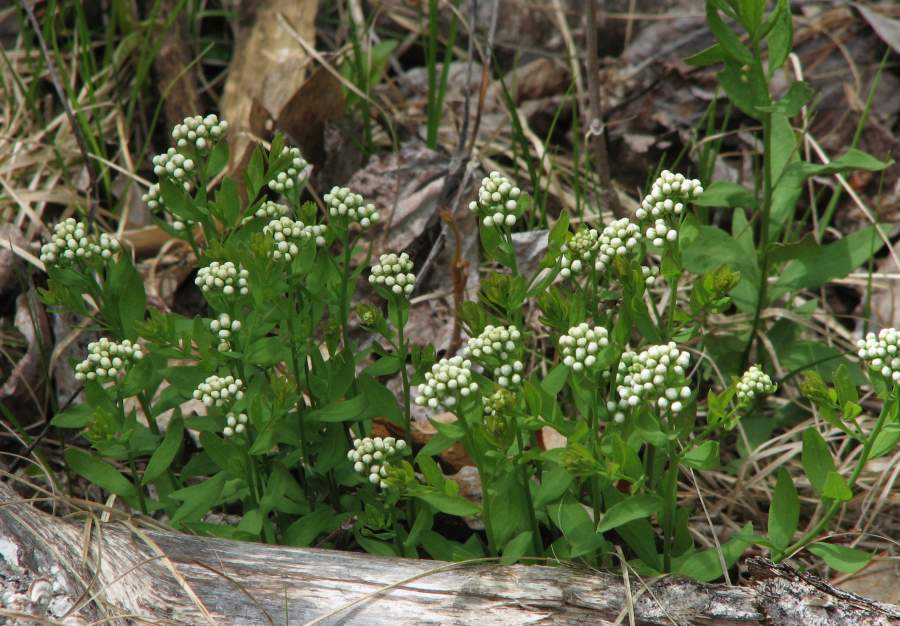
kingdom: Plantae
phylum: Tracheophyta
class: Magnoliopsida
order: Santalales
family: Comandraceae
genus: Comandra
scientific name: Comandra umbellata
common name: Bastard toadflax
